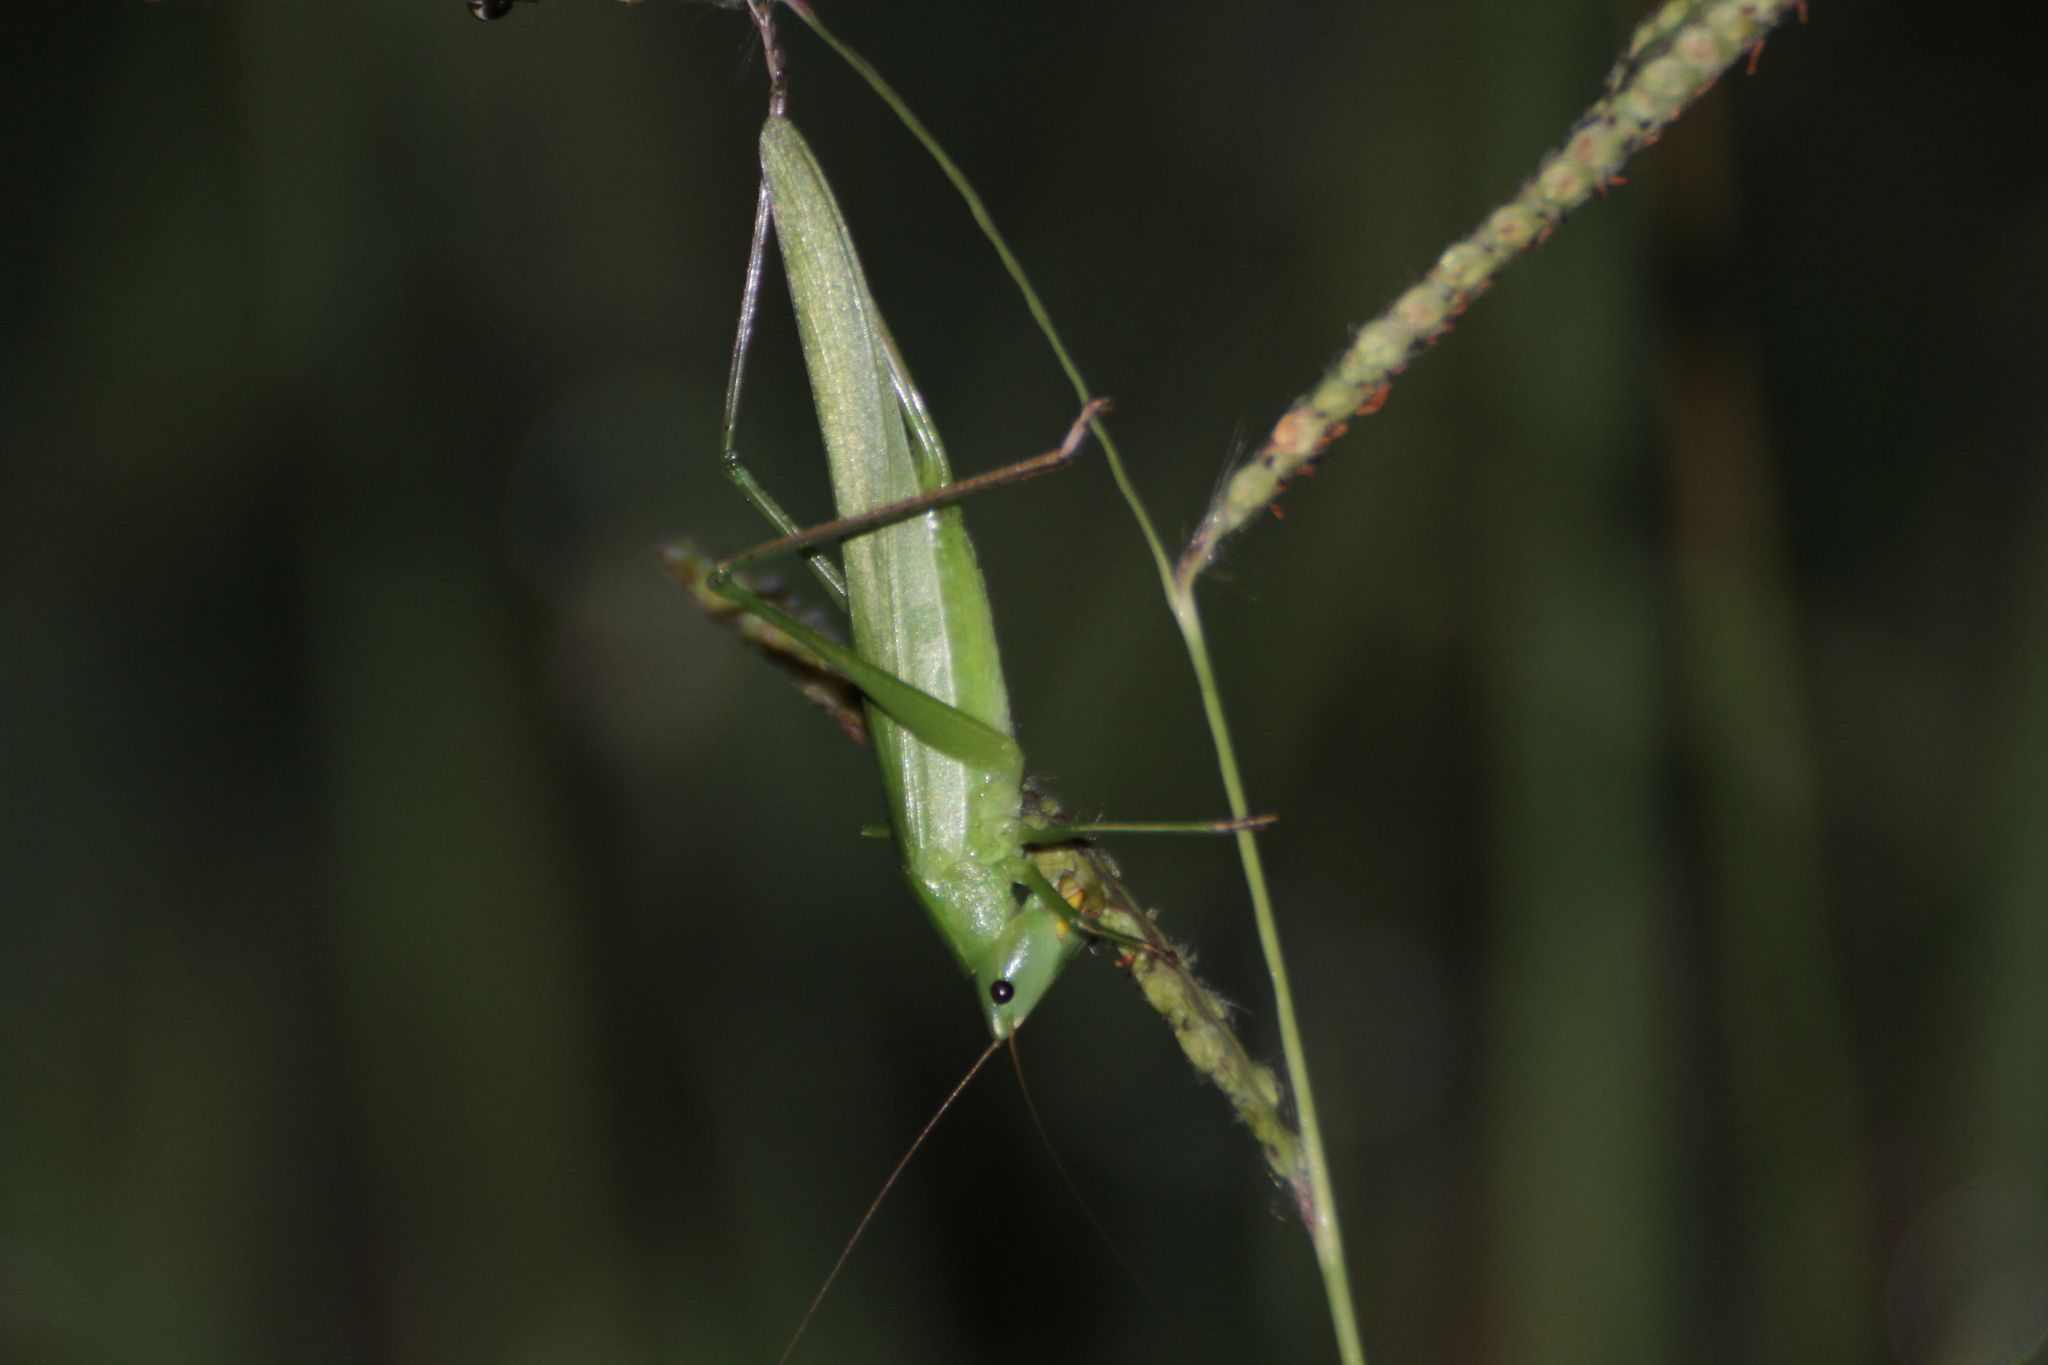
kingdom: Animalia
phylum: Arthropoda
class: Insecta
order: Orthoptera
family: Tettigoniidae
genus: Ruspolia
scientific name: Ruspolia nitidula
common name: Large conehead
